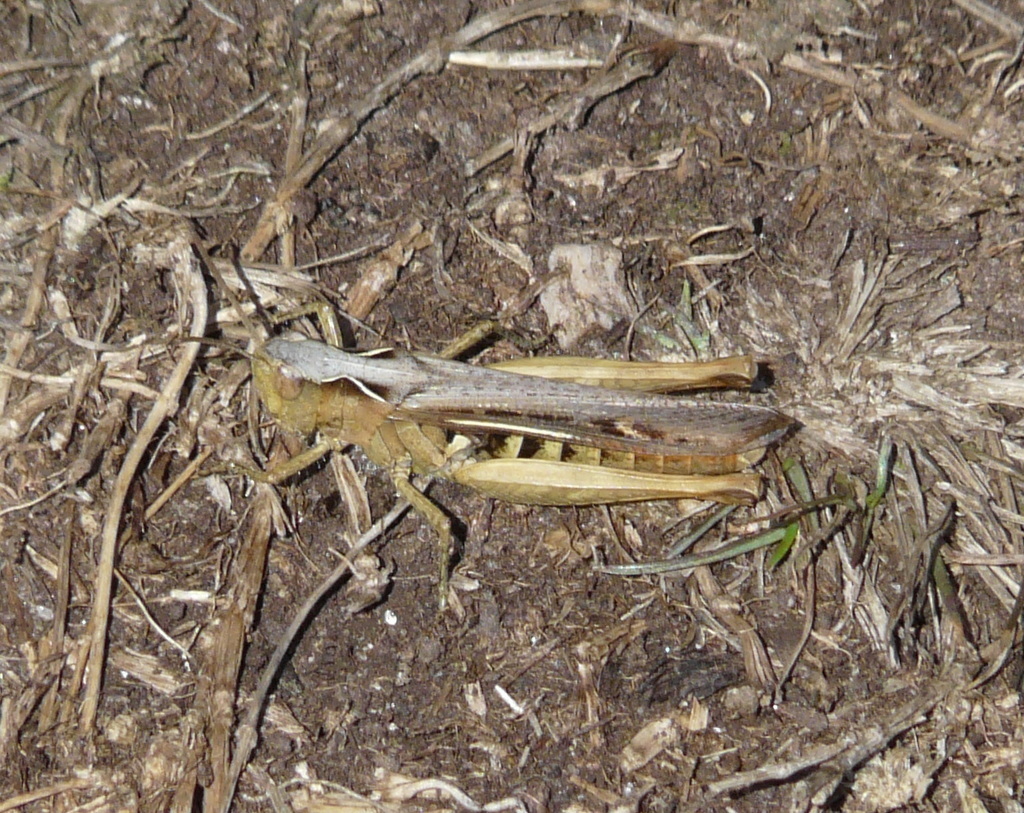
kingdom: Animalia
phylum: Arthropoda
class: Insecta
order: Orthoptera
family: Acrididae
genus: Chorthippus
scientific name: Chorthippus brunneus
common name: Field grasshopper
